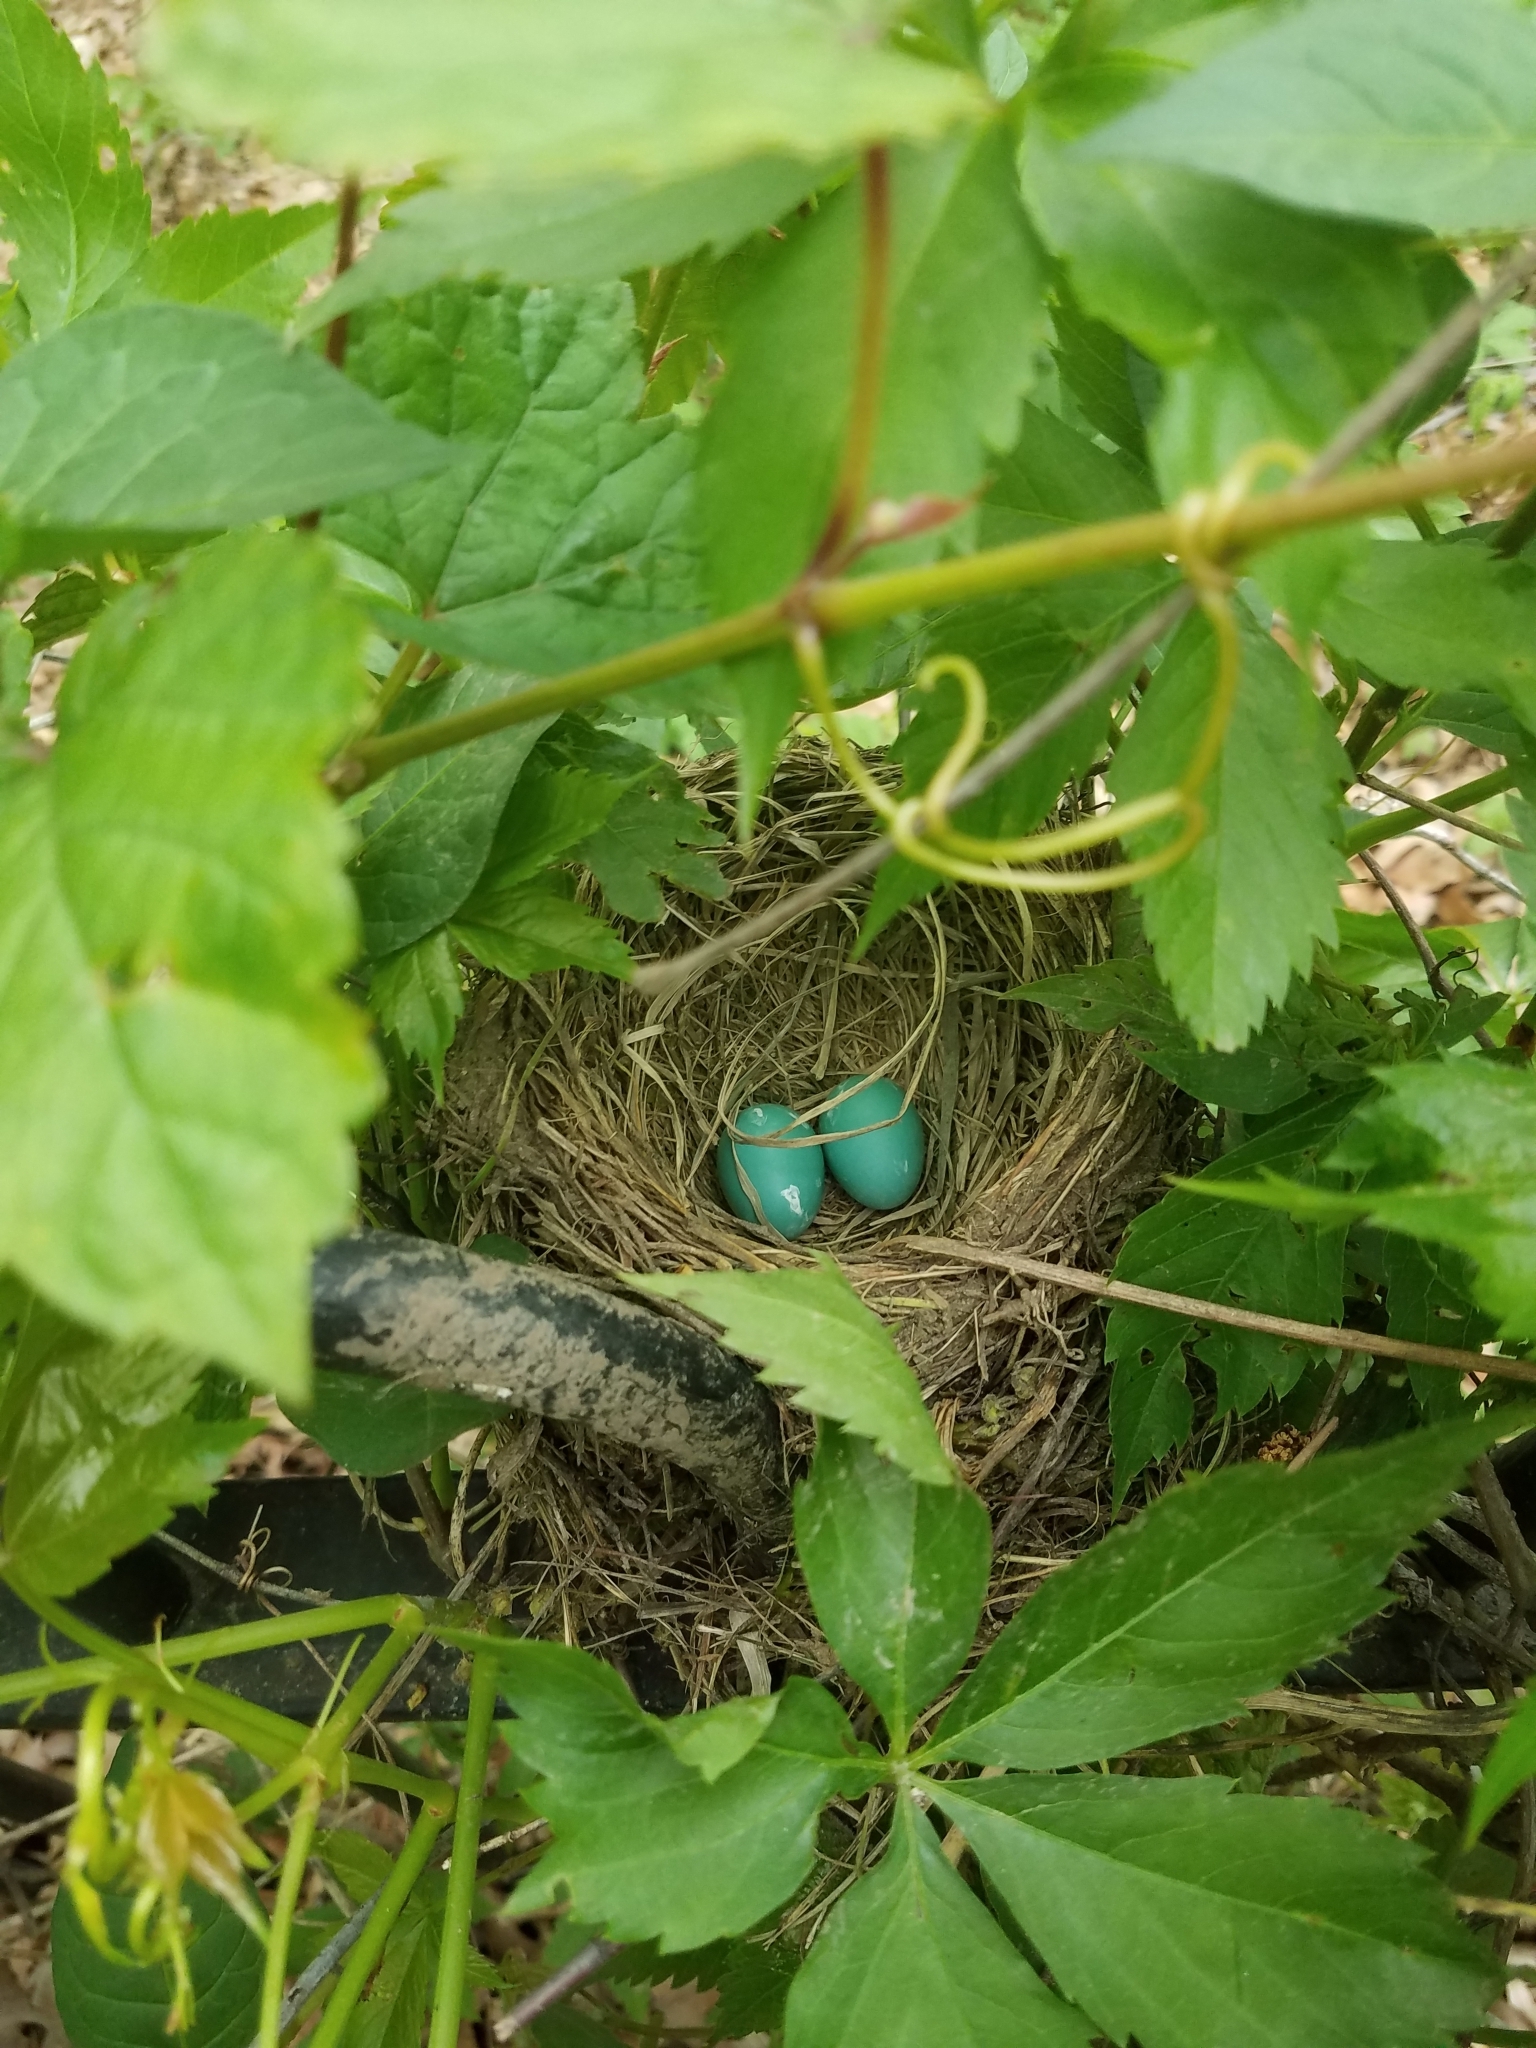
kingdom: Animalia
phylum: Chordata
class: Aves
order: Passeriformes
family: Turdidae
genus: Turdus
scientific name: Turdus migratorius
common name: American robin
